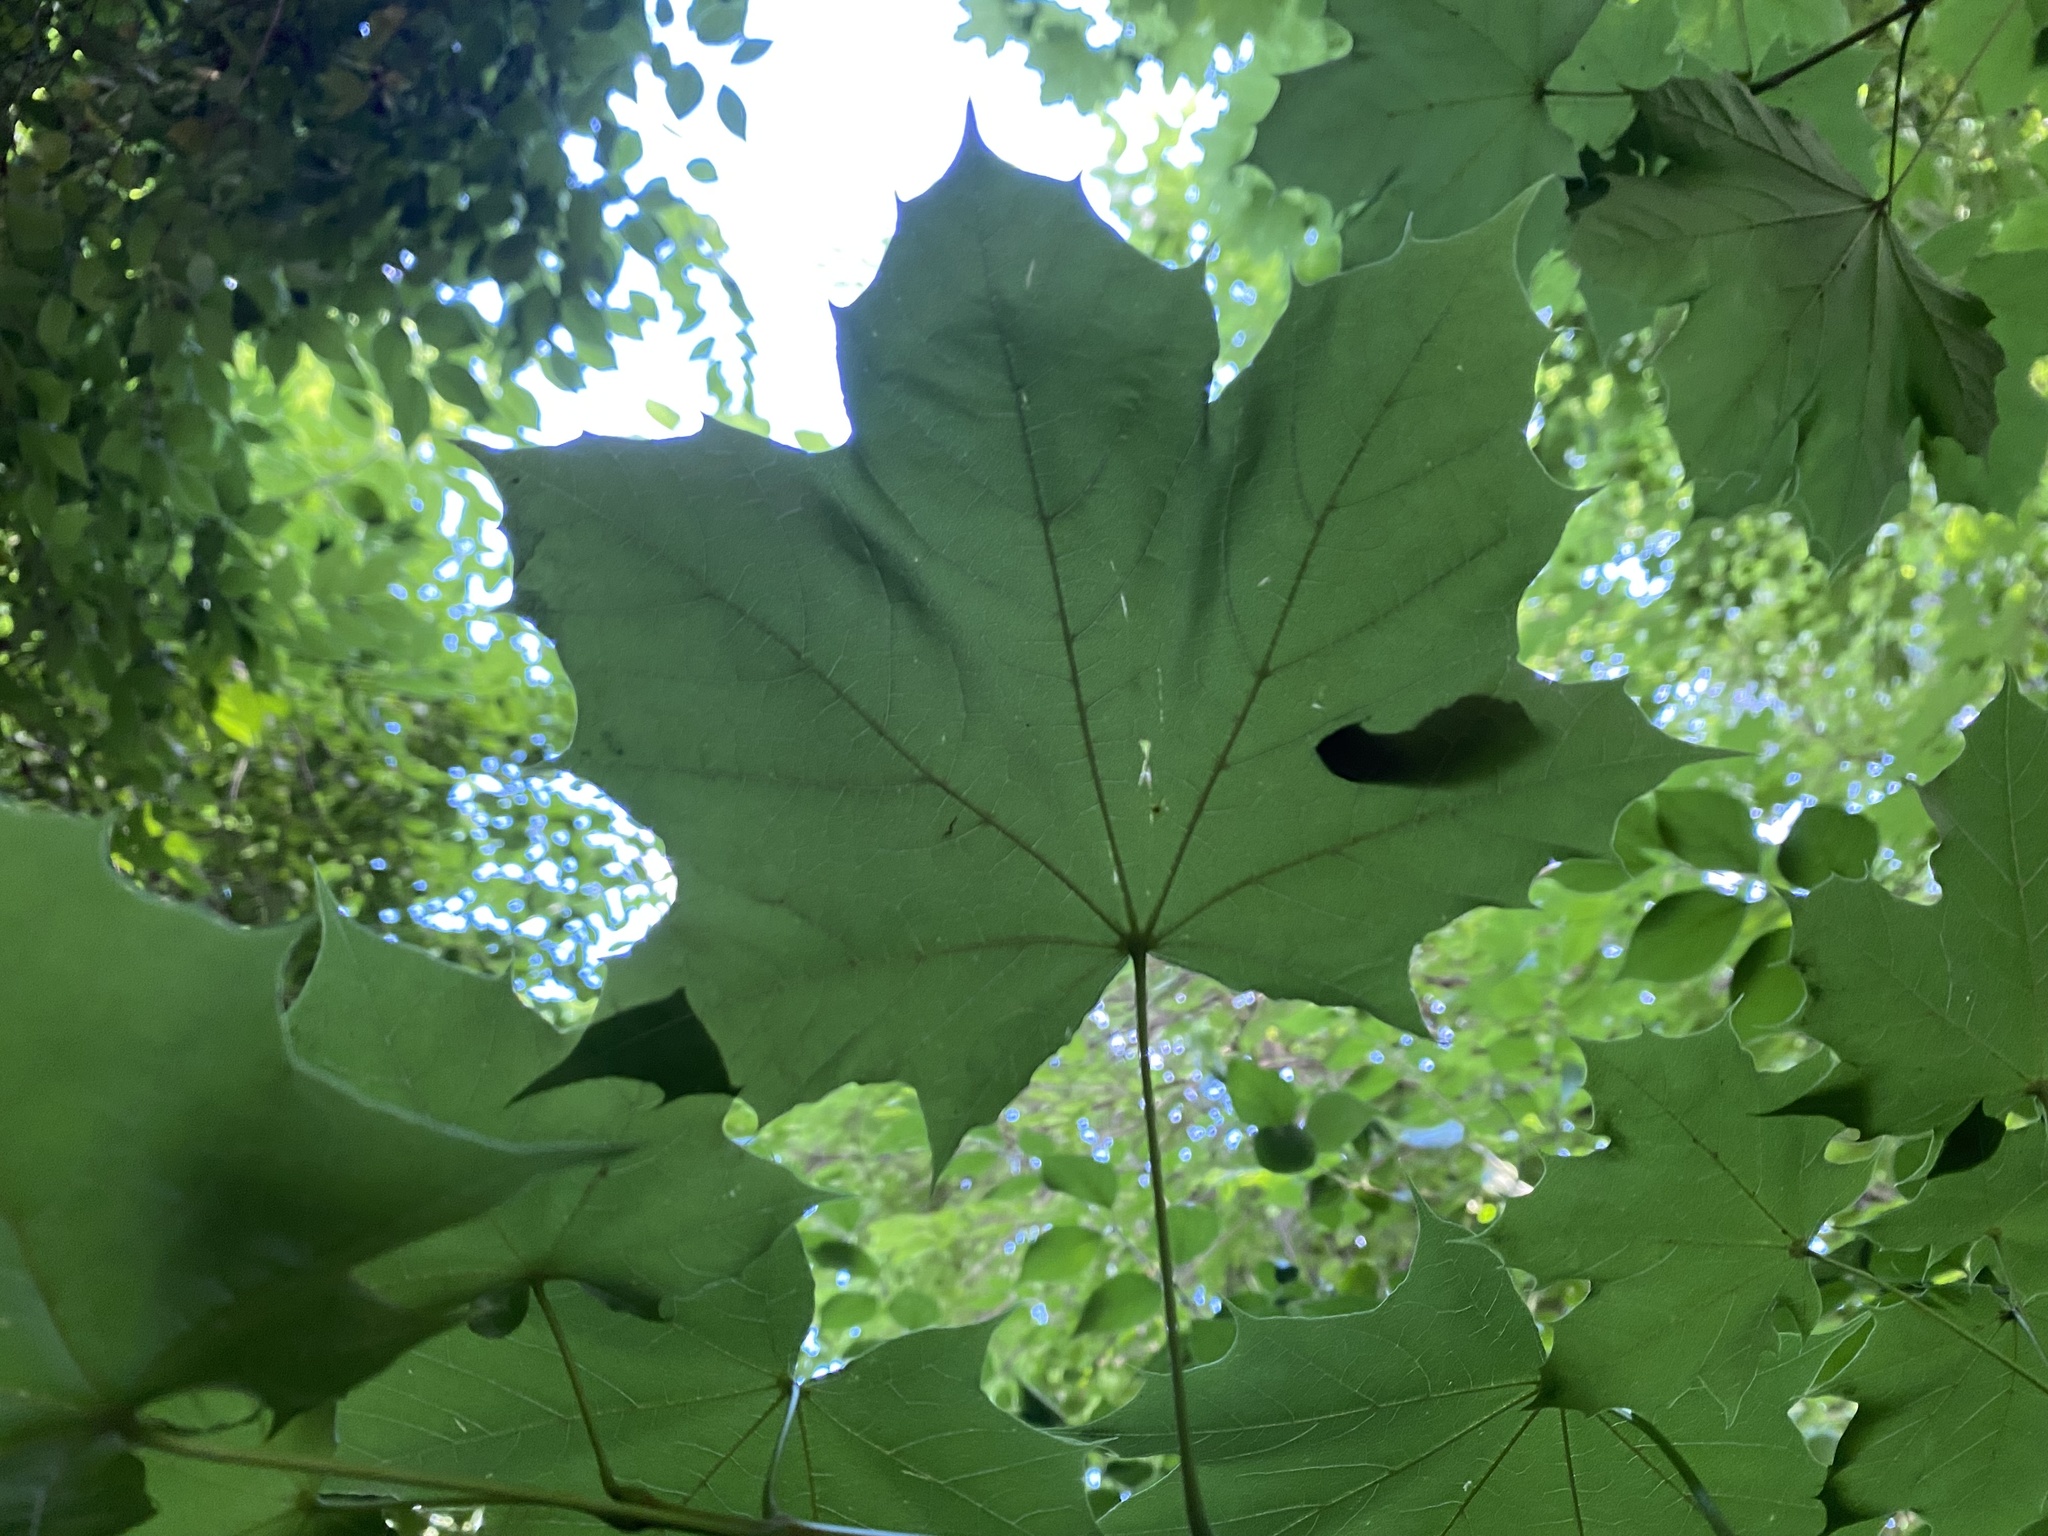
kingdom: Plantae
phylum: Tracheophyta
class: Magnoliopsida
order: Sapindales
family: Sapindaceae
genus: Acer
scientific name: Acer platanoides
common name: Norway maple
